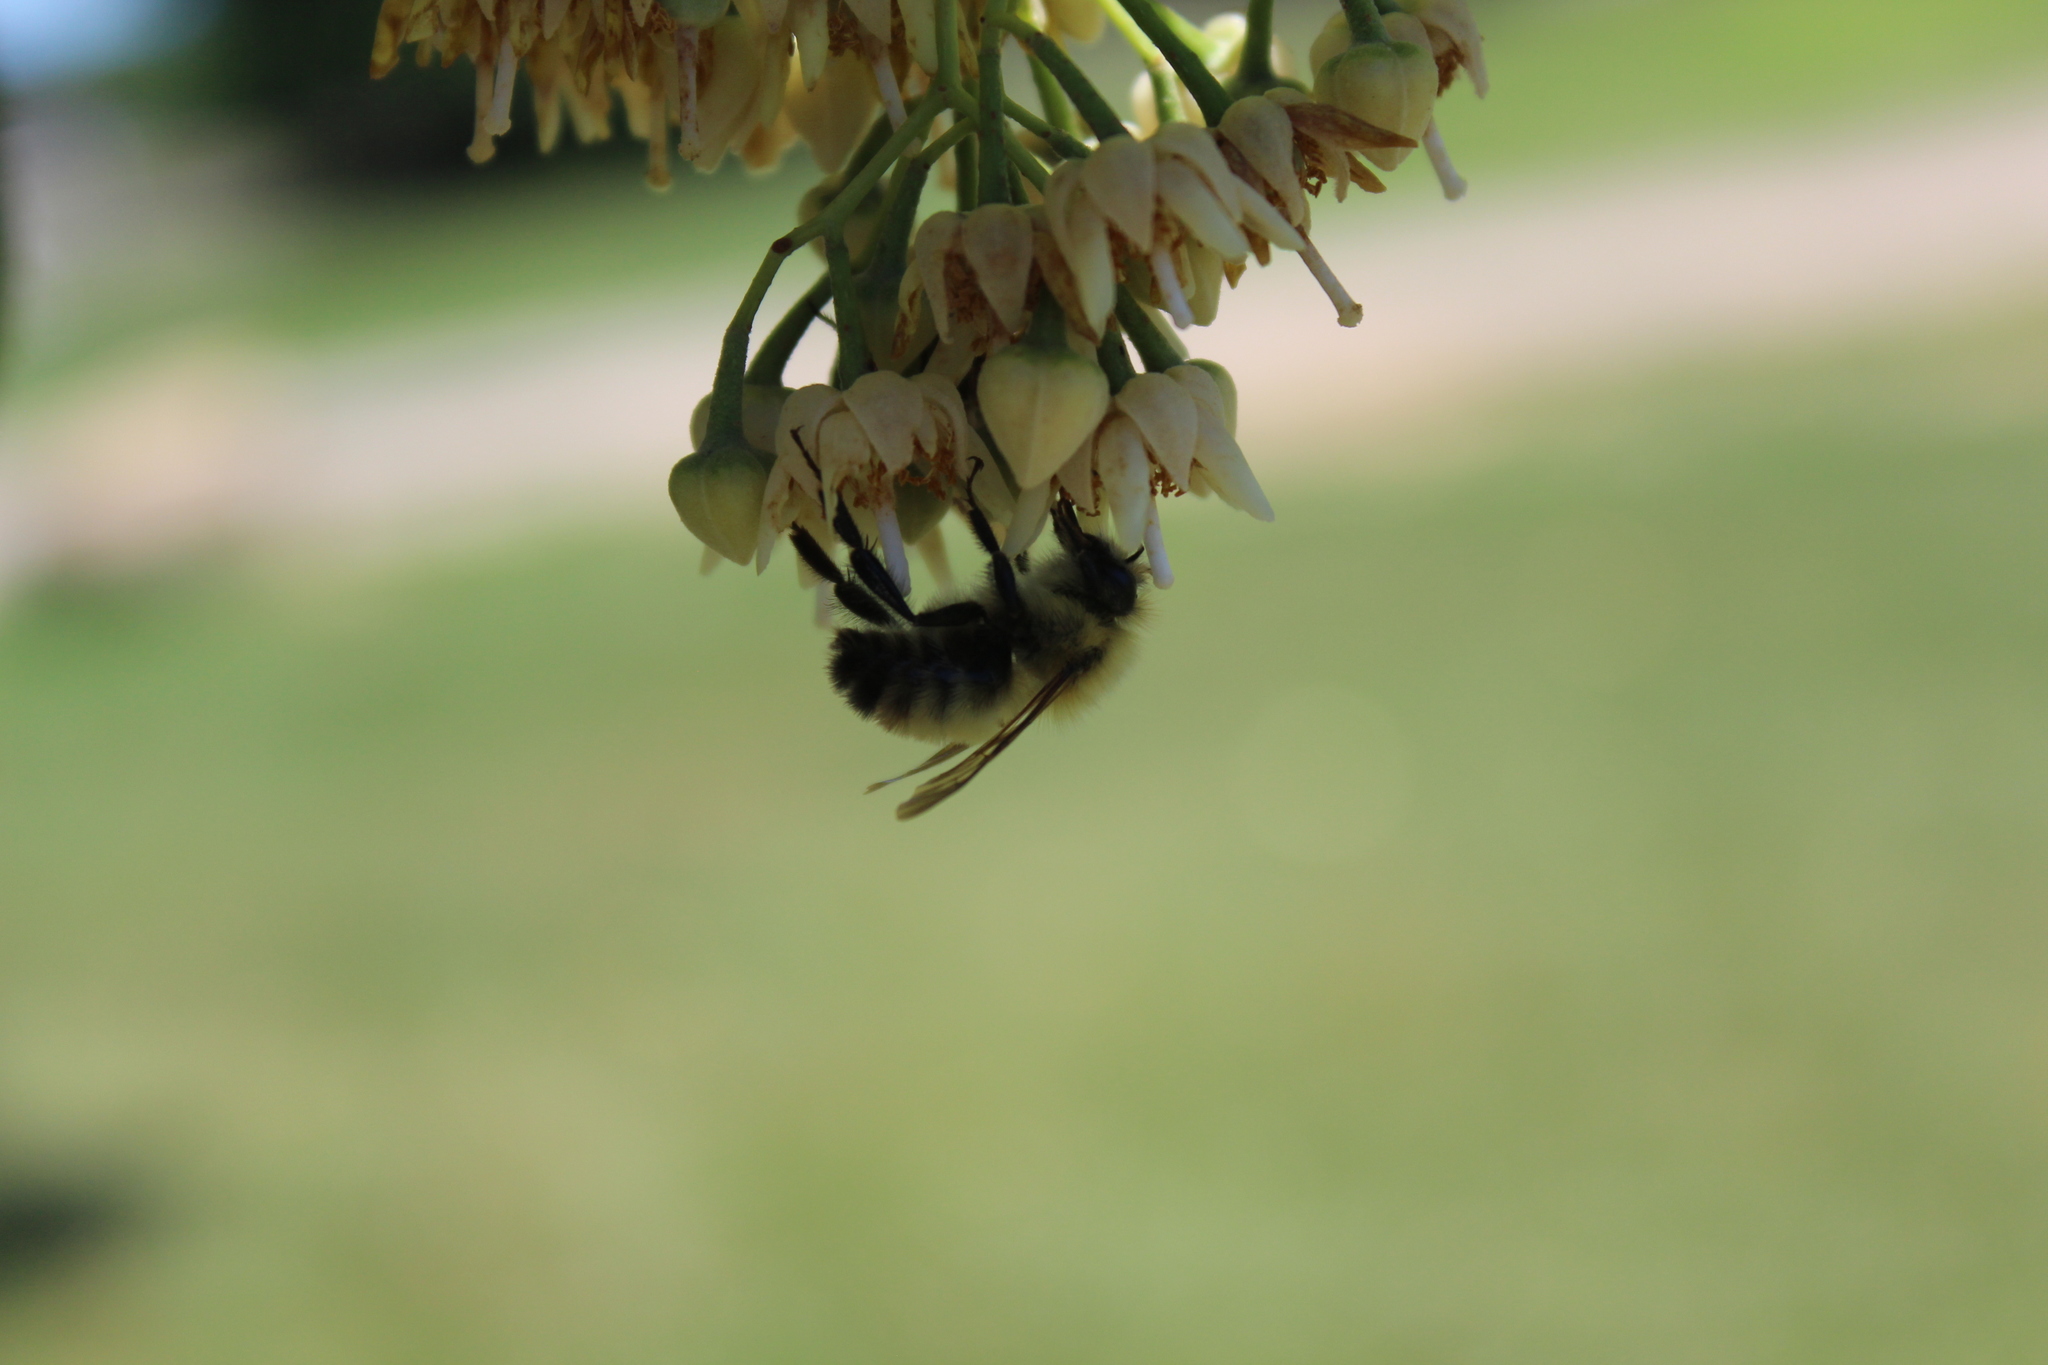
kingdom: Animalia
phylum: Arthropoda
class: Insecta
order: Hymenoptera
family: Apidae
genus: Bombus
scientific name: Bombus perplexus
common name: Confusing bumble bee
